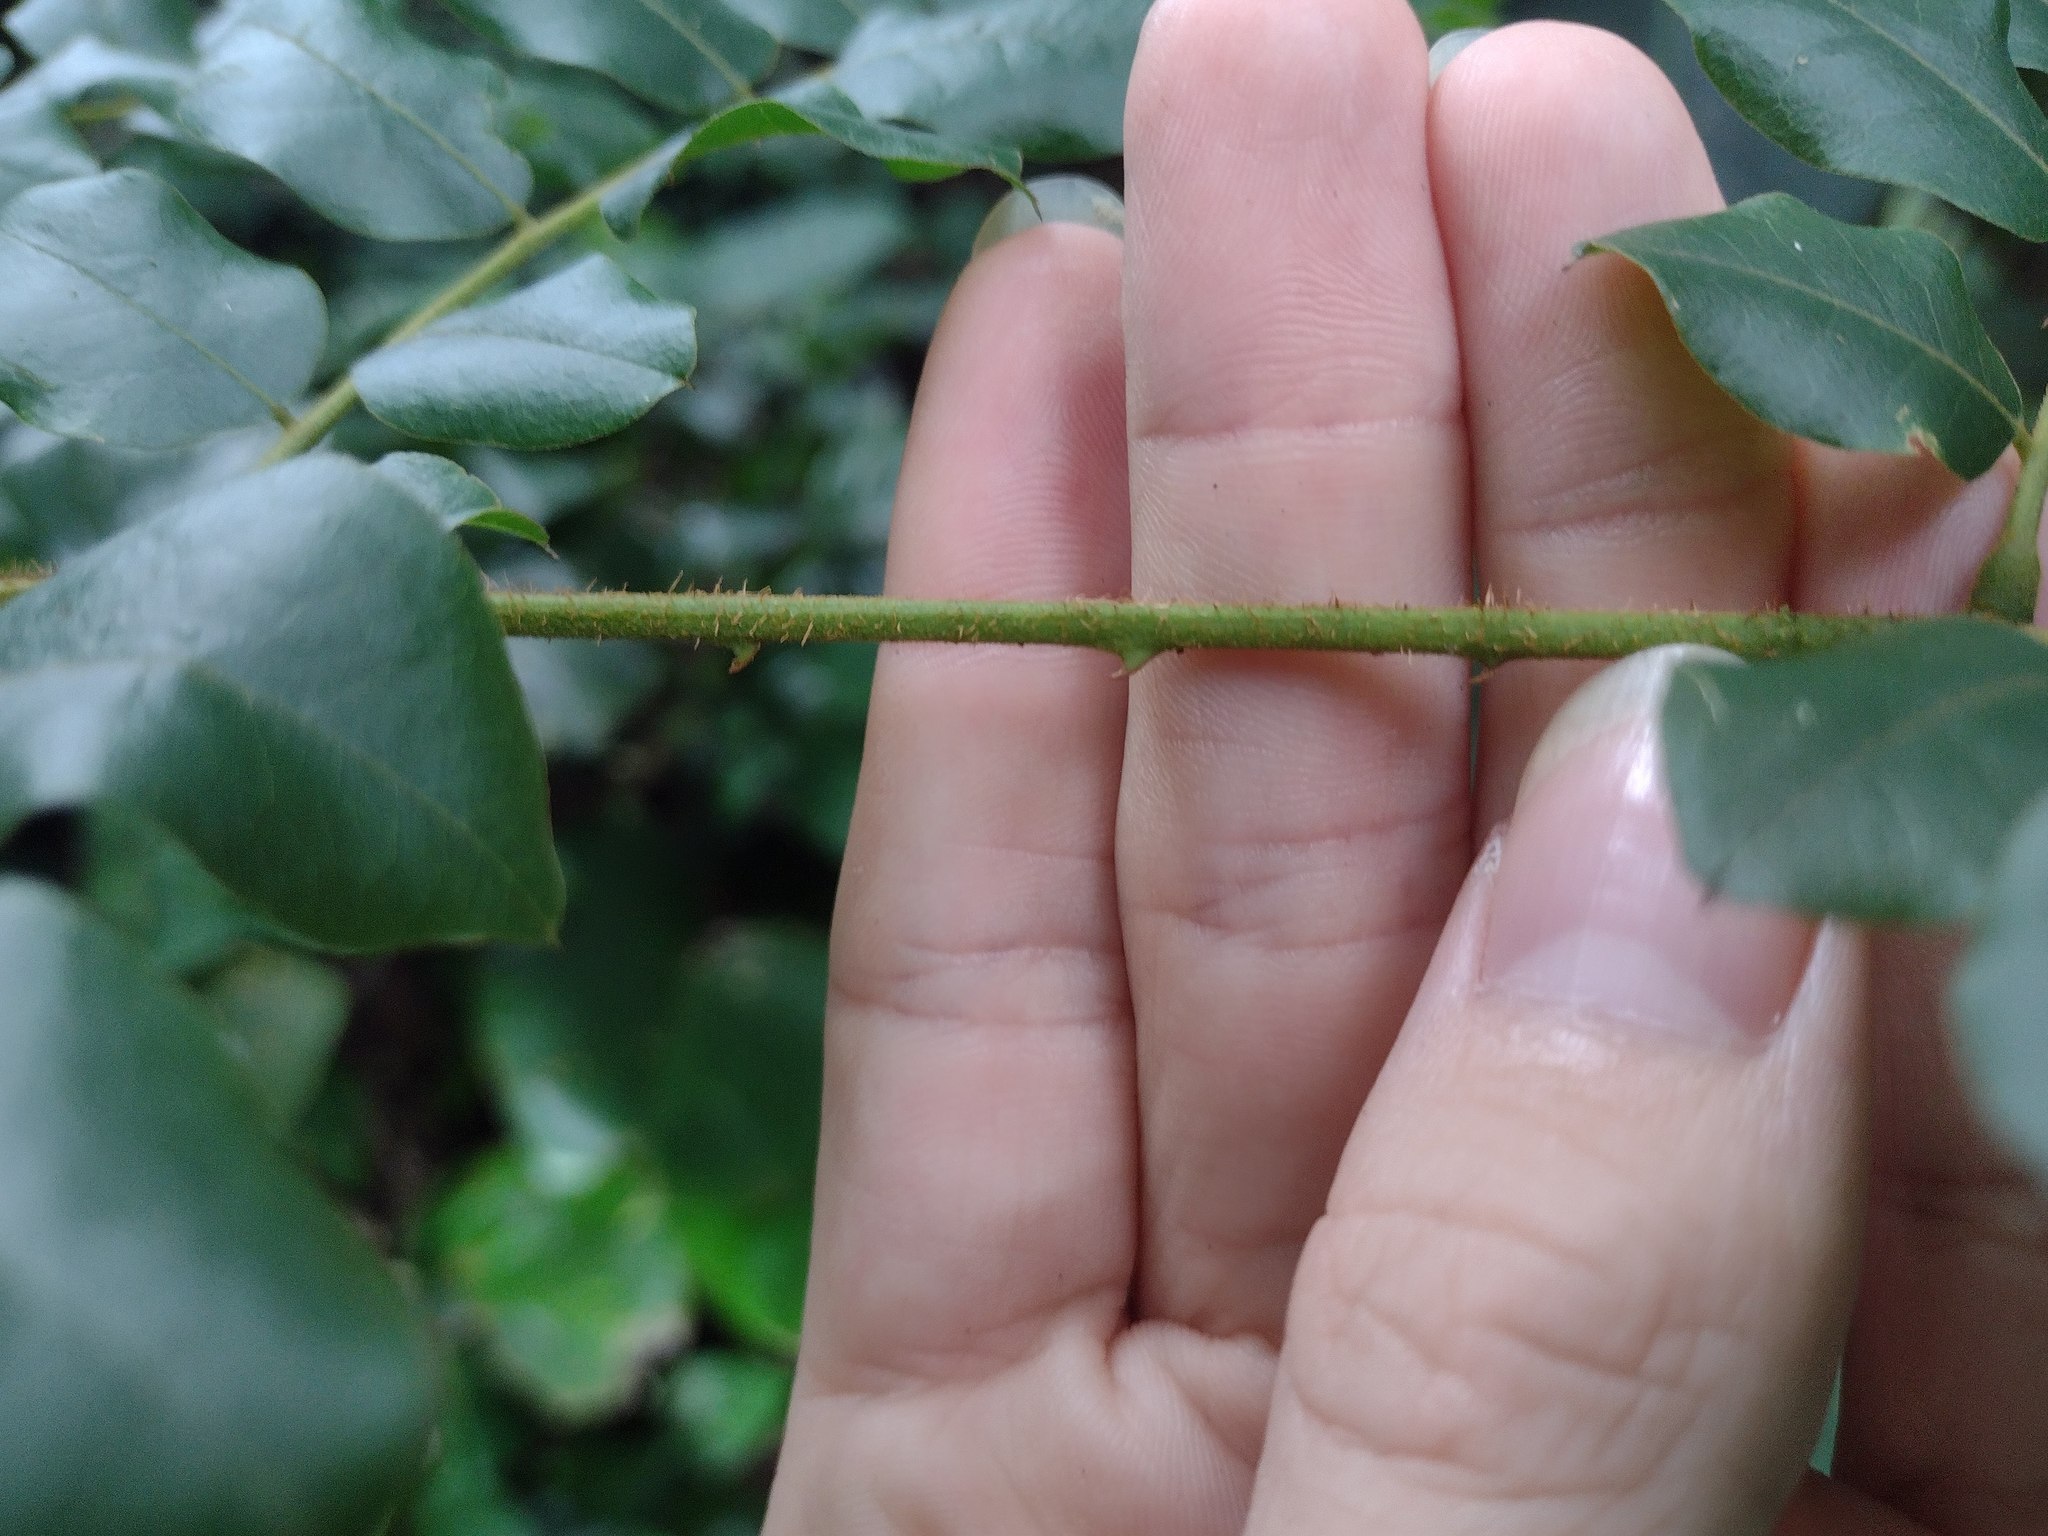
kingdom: Plantae
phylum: Tracheophyta
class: Magnoliopsida
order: Fabales
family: Fabaceae
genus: Guilandina
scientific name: Guilandina bonduc
